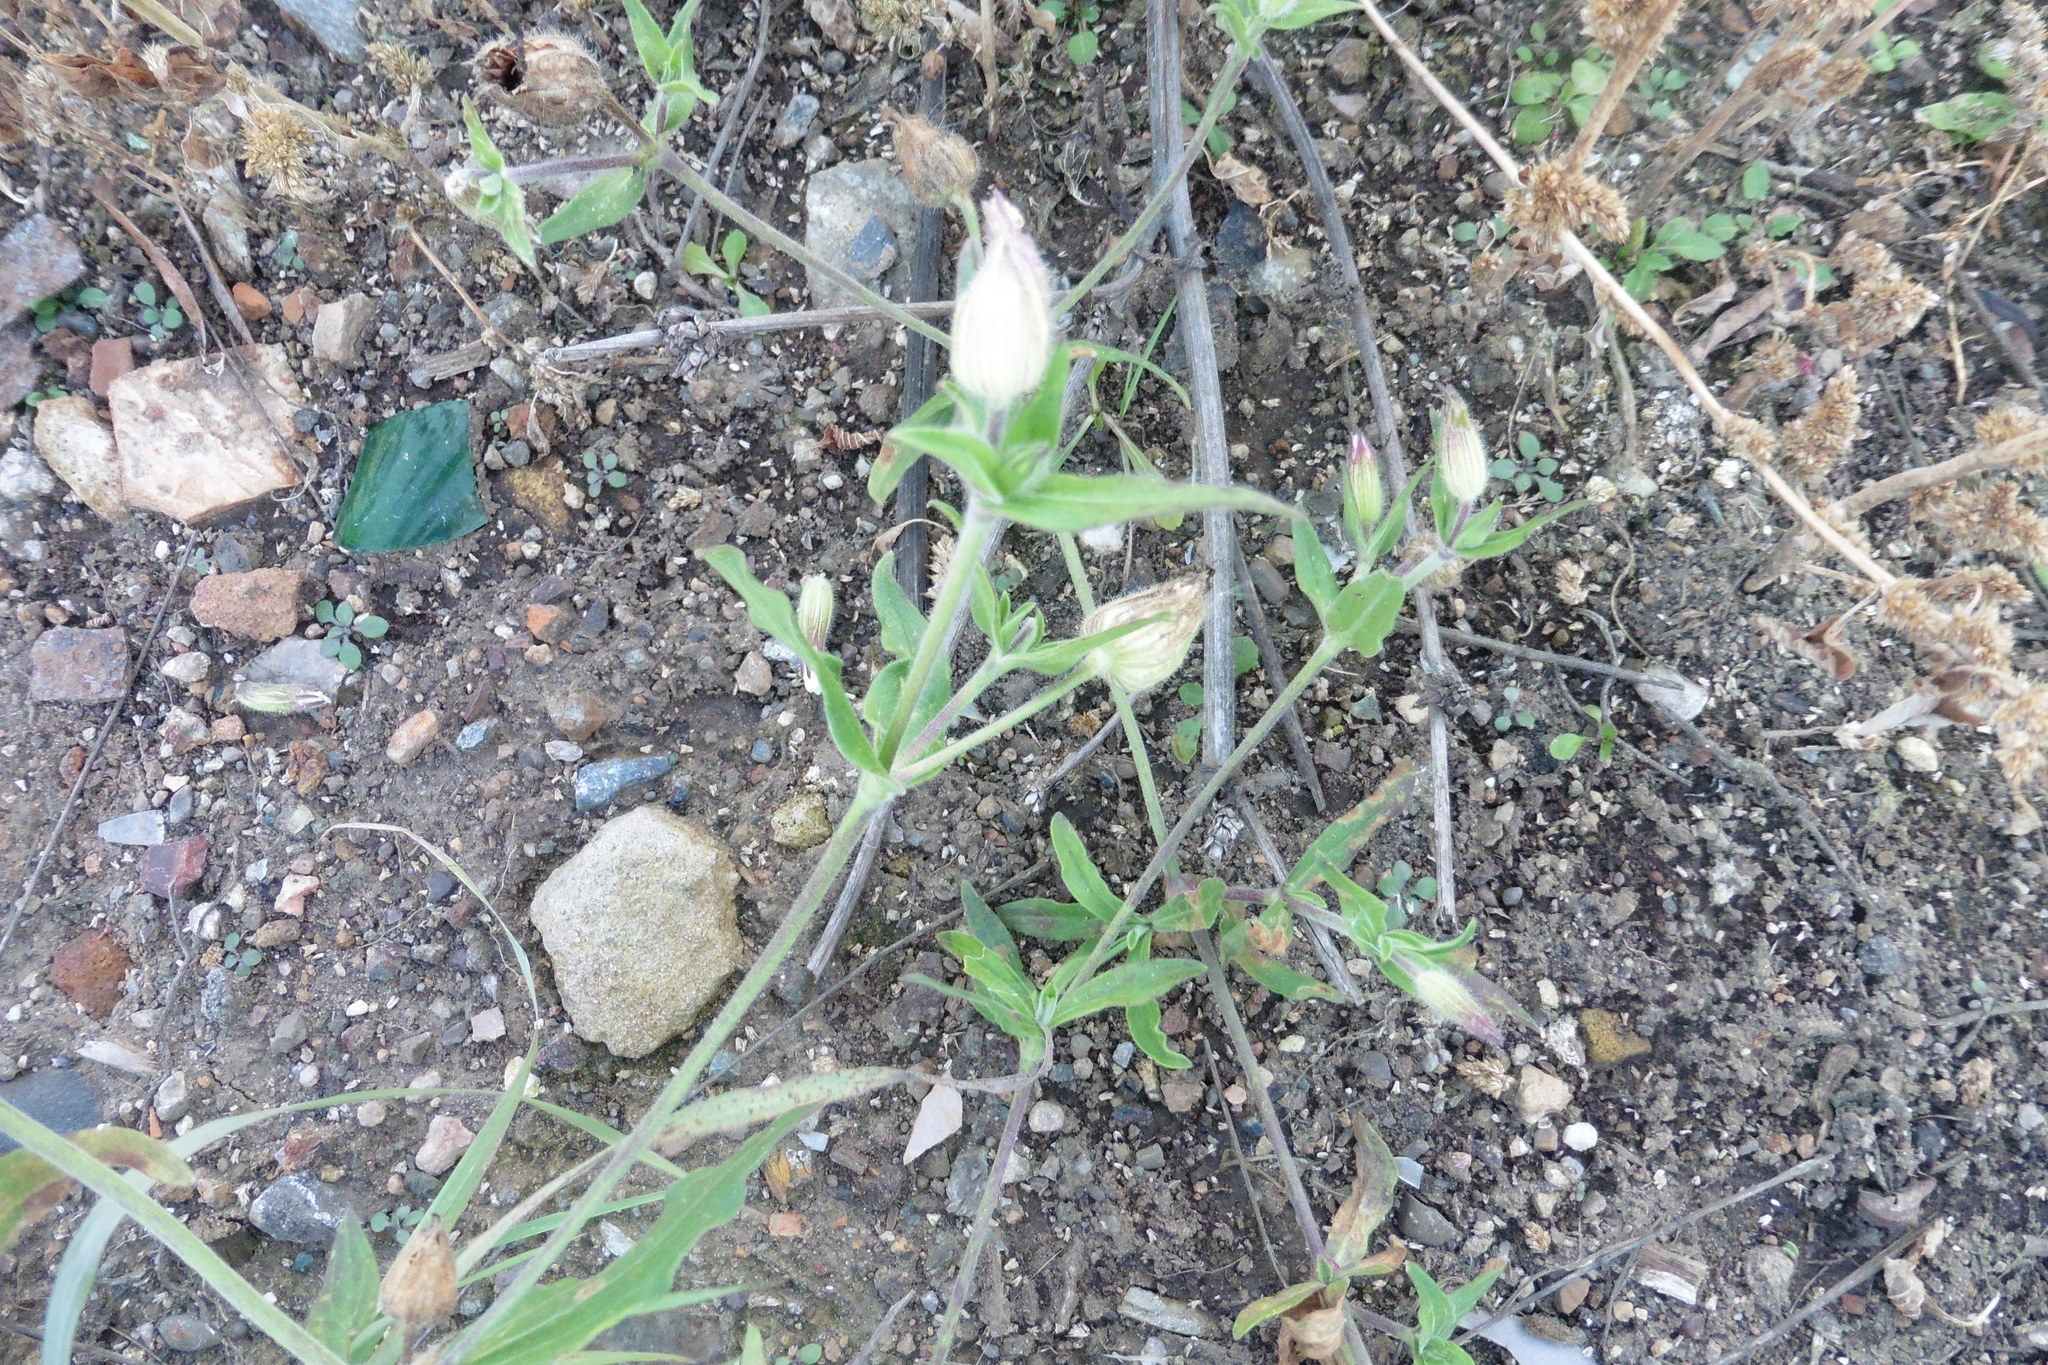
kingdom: Plantae
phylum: Tracheophyta
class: Magnoliopsida
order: Caryophyllales
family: Caryophyllaceae
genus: Silene
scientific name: Silene latifolia
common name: White campion
